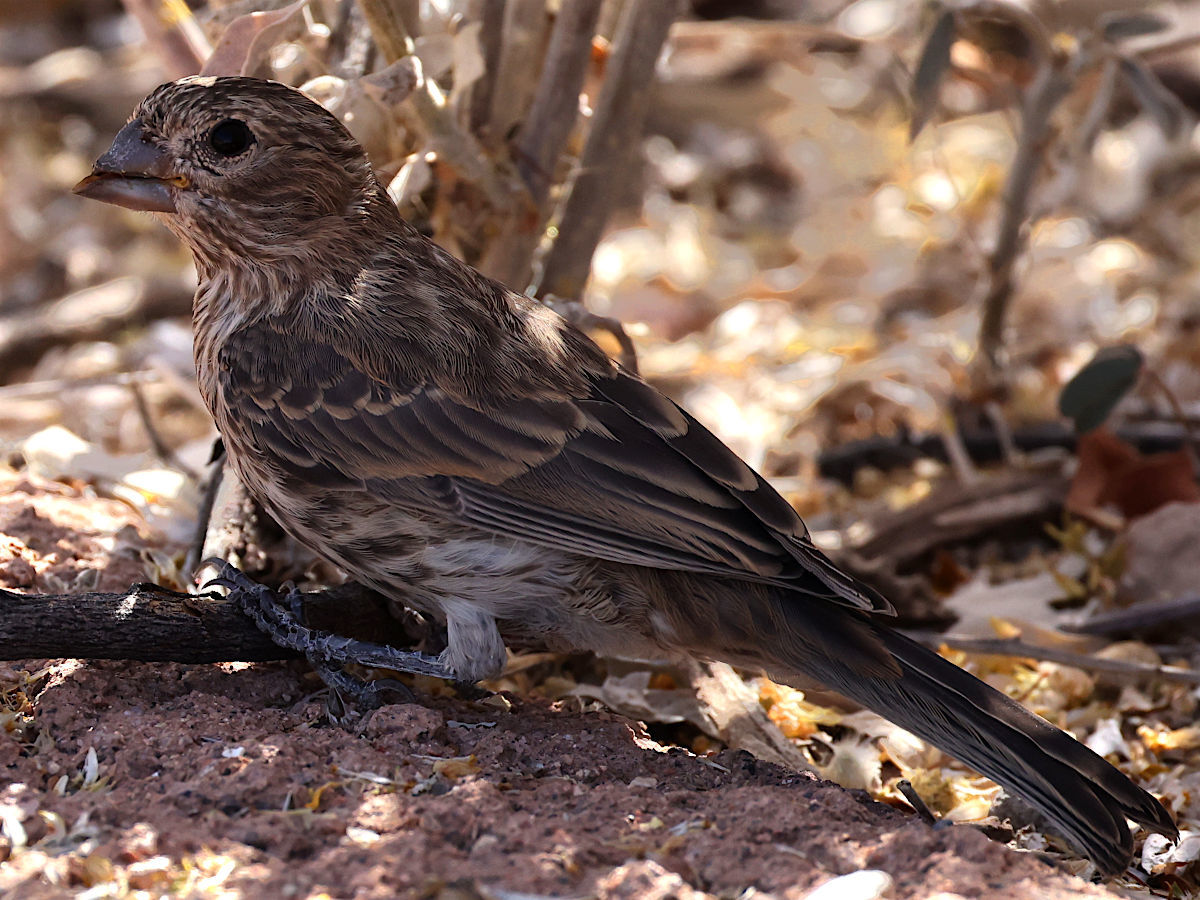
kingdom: Animalia
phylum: Chordata
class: Aves
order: Passeriformes
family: Fringillidae
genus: Haemorhous
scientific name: Haemorhous mexicanus
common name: House finch
